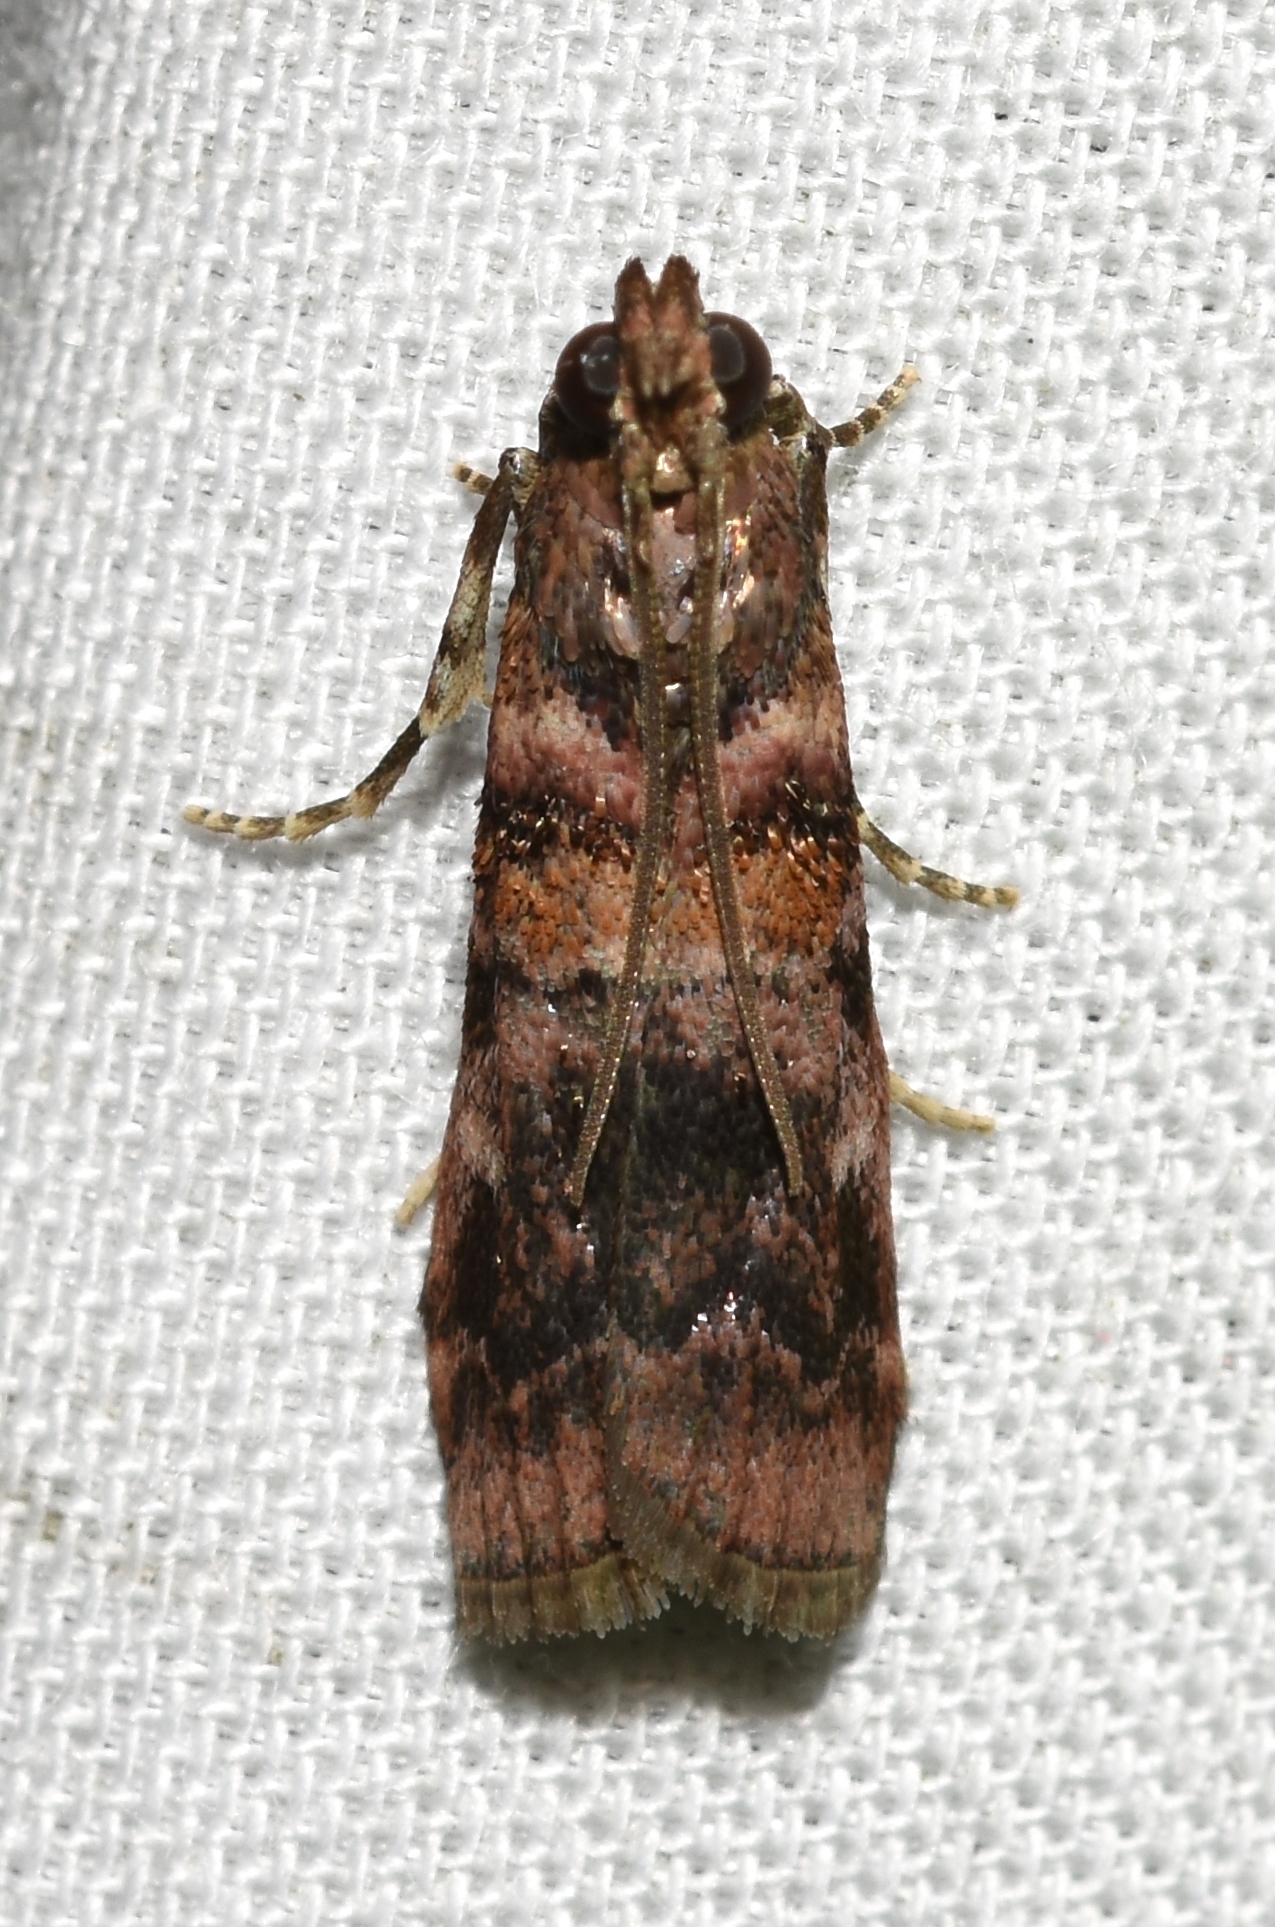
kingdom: Animalia
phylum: Arthropoda
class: Insecta
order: Lepidoptera
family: Pyralidae
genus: Dioryctria
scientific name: Dioryctria pygmaeella
